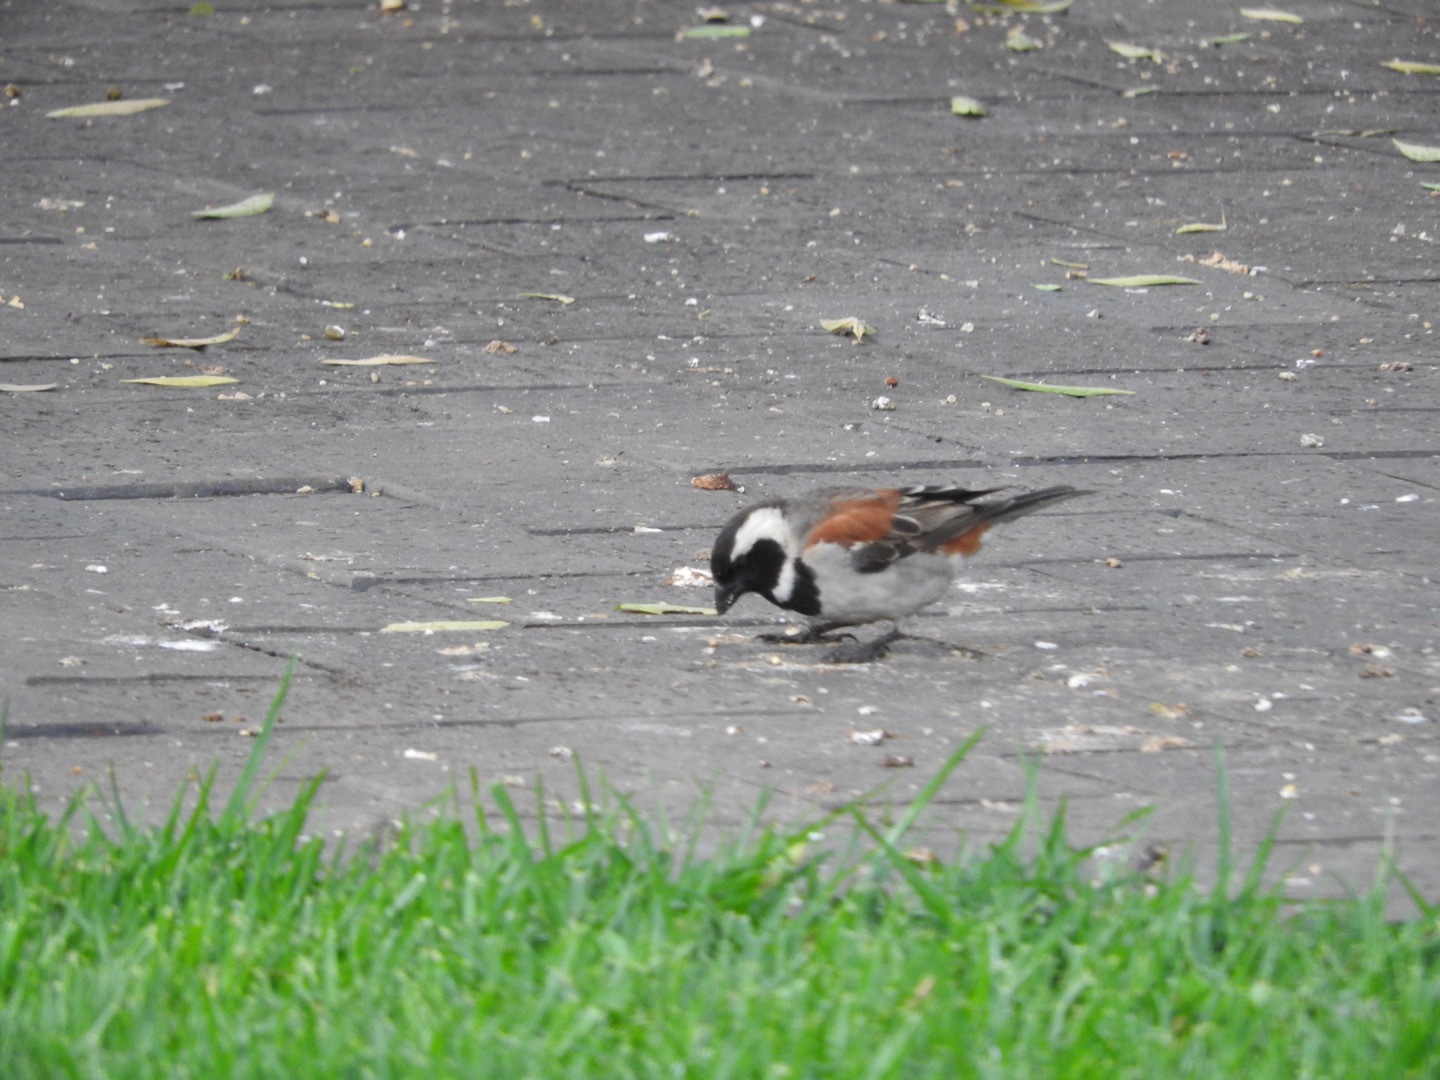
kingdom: Animalia
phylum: Chordata
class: Aves
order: Passeriformes
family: Passeridae
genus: Passer
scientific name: Passer melanurus
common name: Cape sparrow
